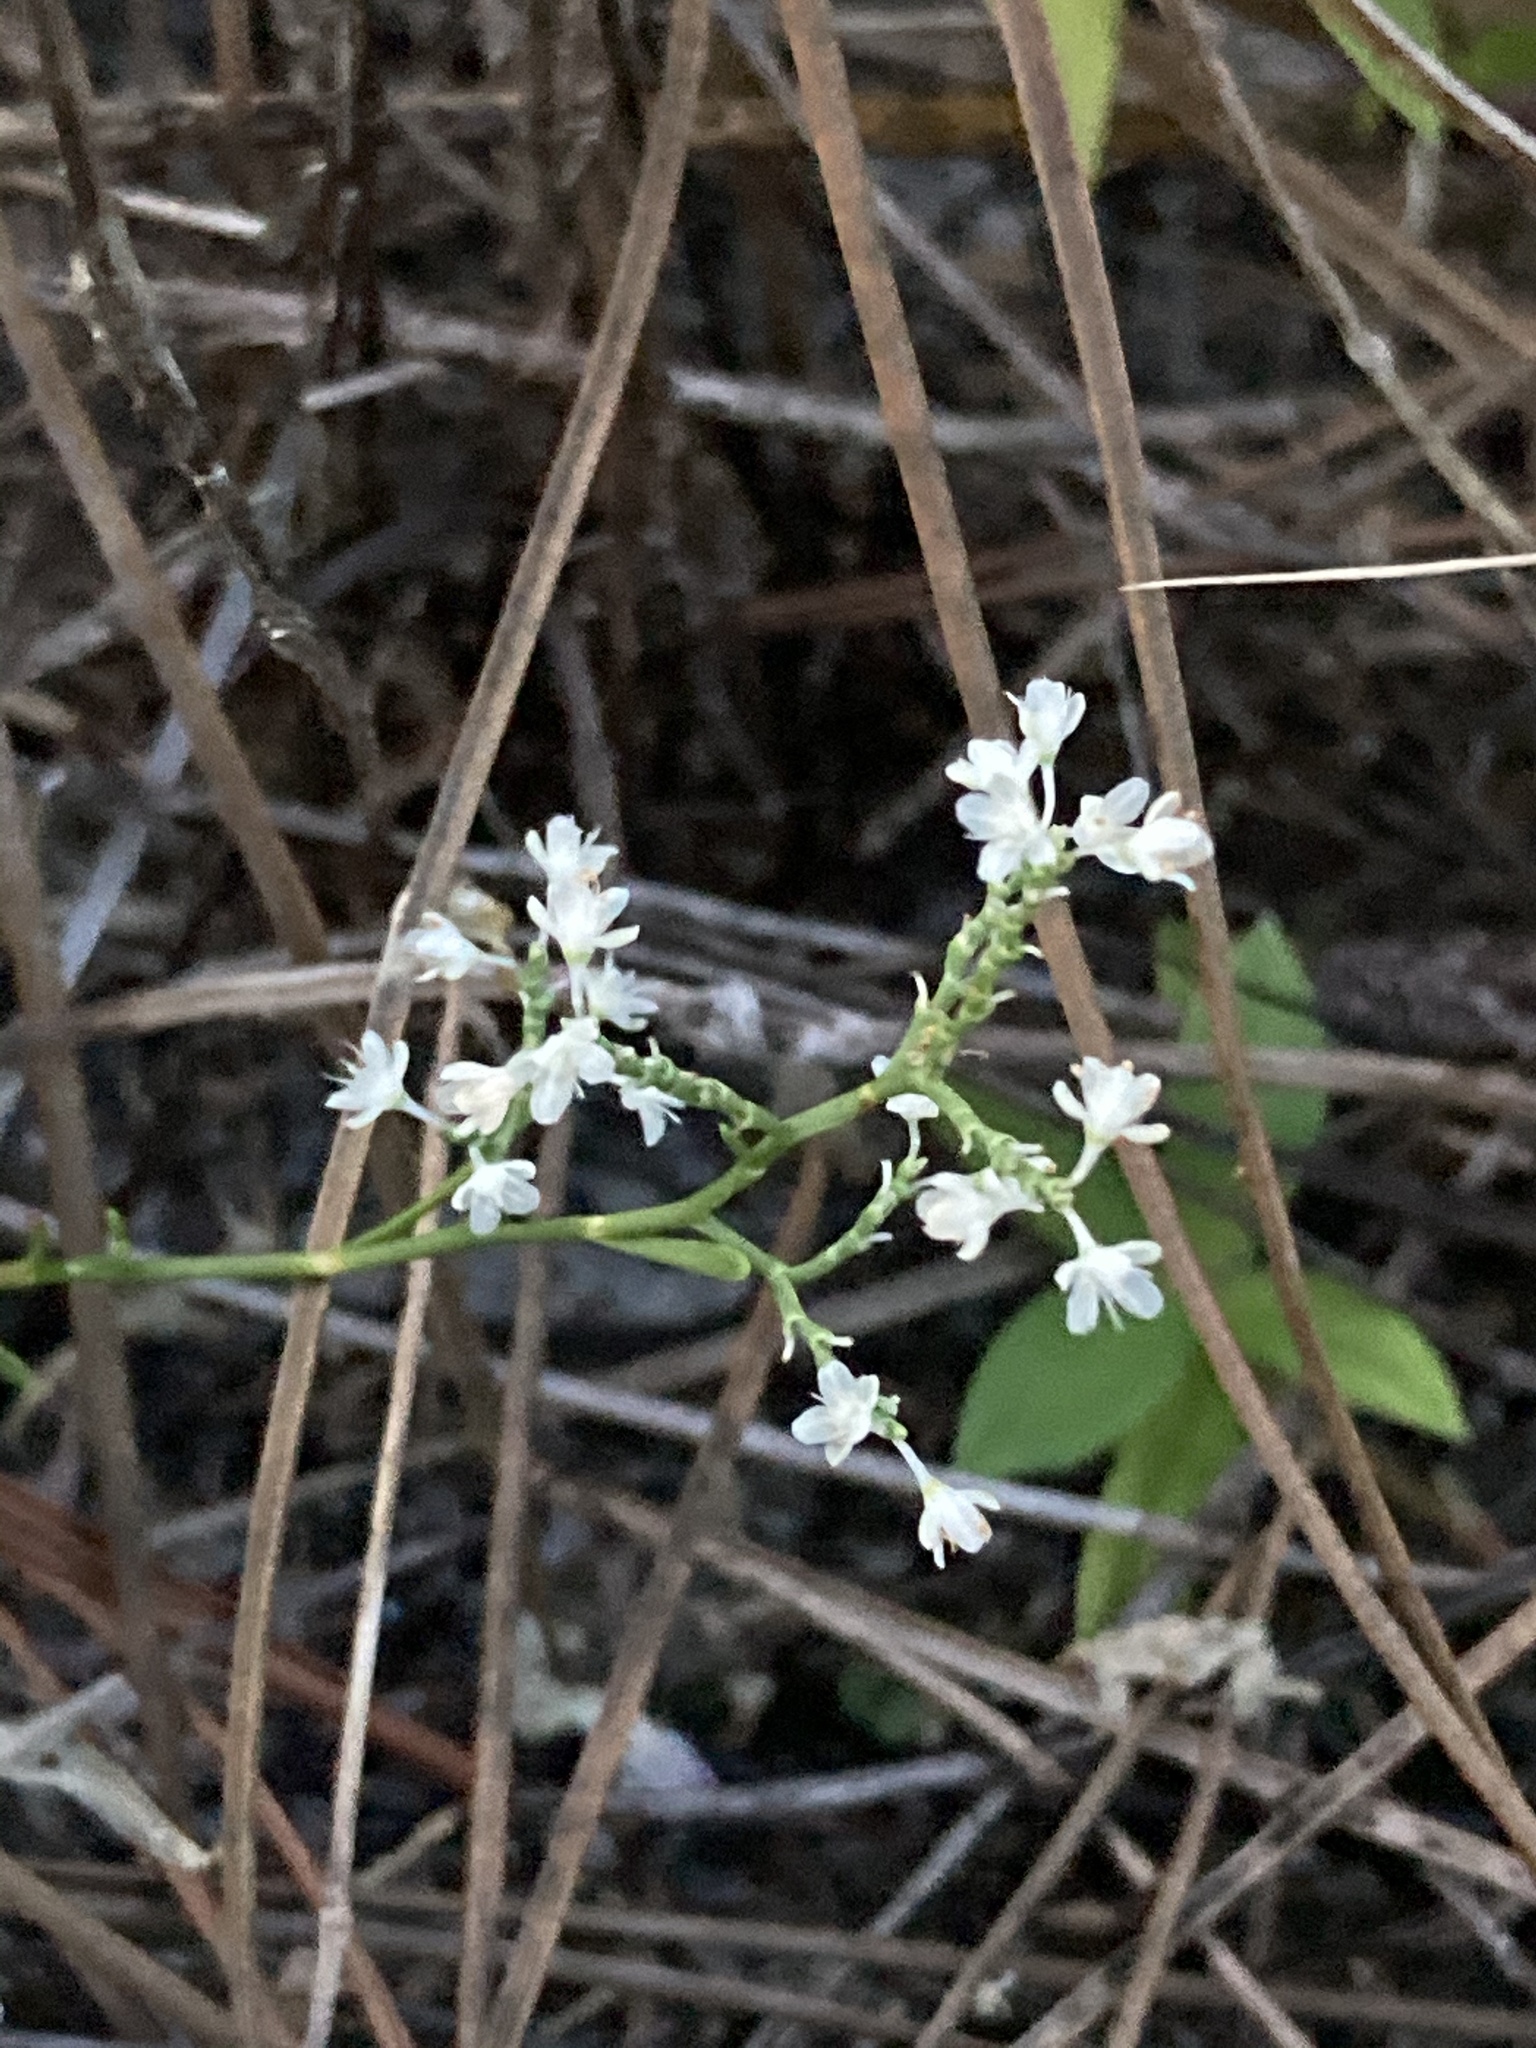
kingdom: Plantae
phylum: Tracheophyta
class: Magnoliopsida
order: Caryophyllales
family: Polygonaceae
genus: Polygonella
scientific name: Polygonella polygama
